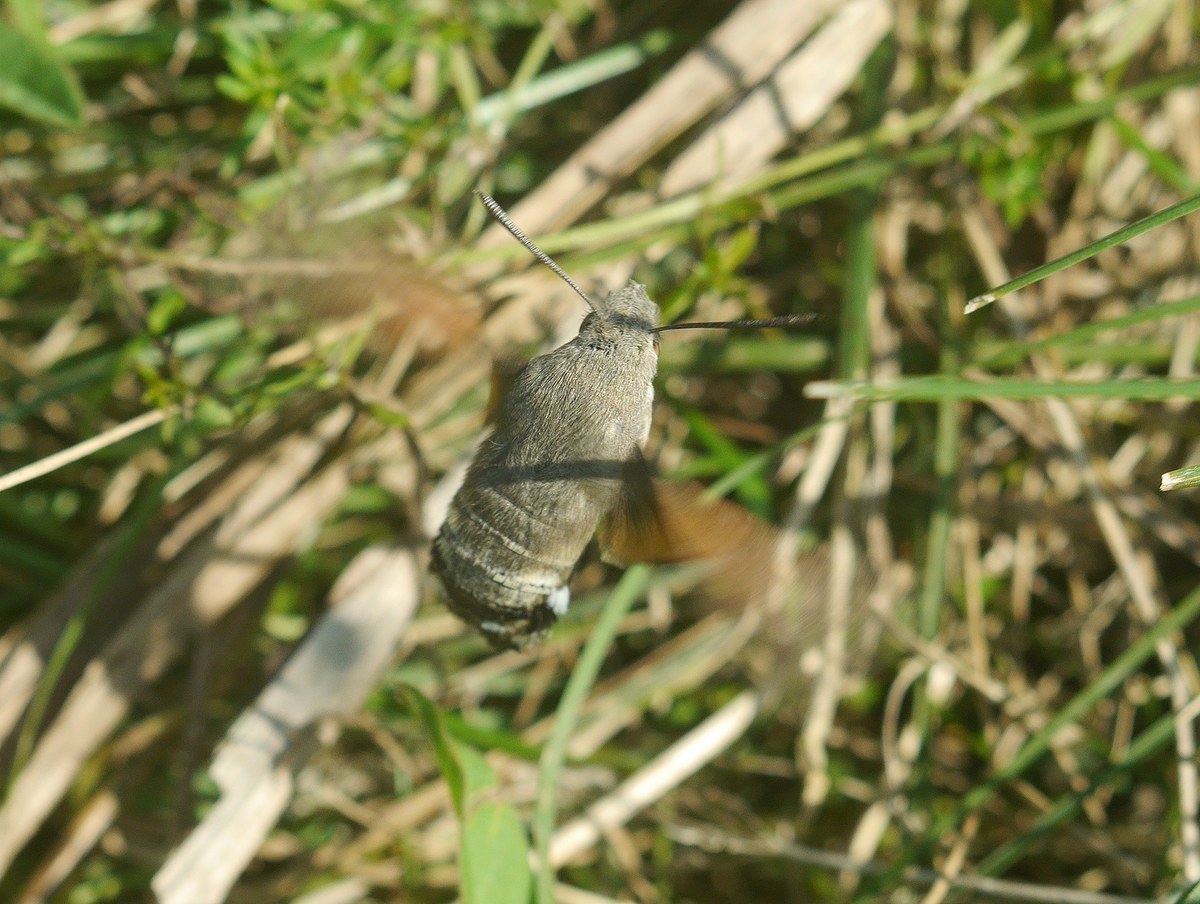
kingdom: Animalia
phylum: Arthropoda
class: Insecta
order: Lepidoptera
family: Sphingidae
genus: Macroglossum
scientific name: Macroglossum stellatarum
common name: Humming-bird hawk-moth
